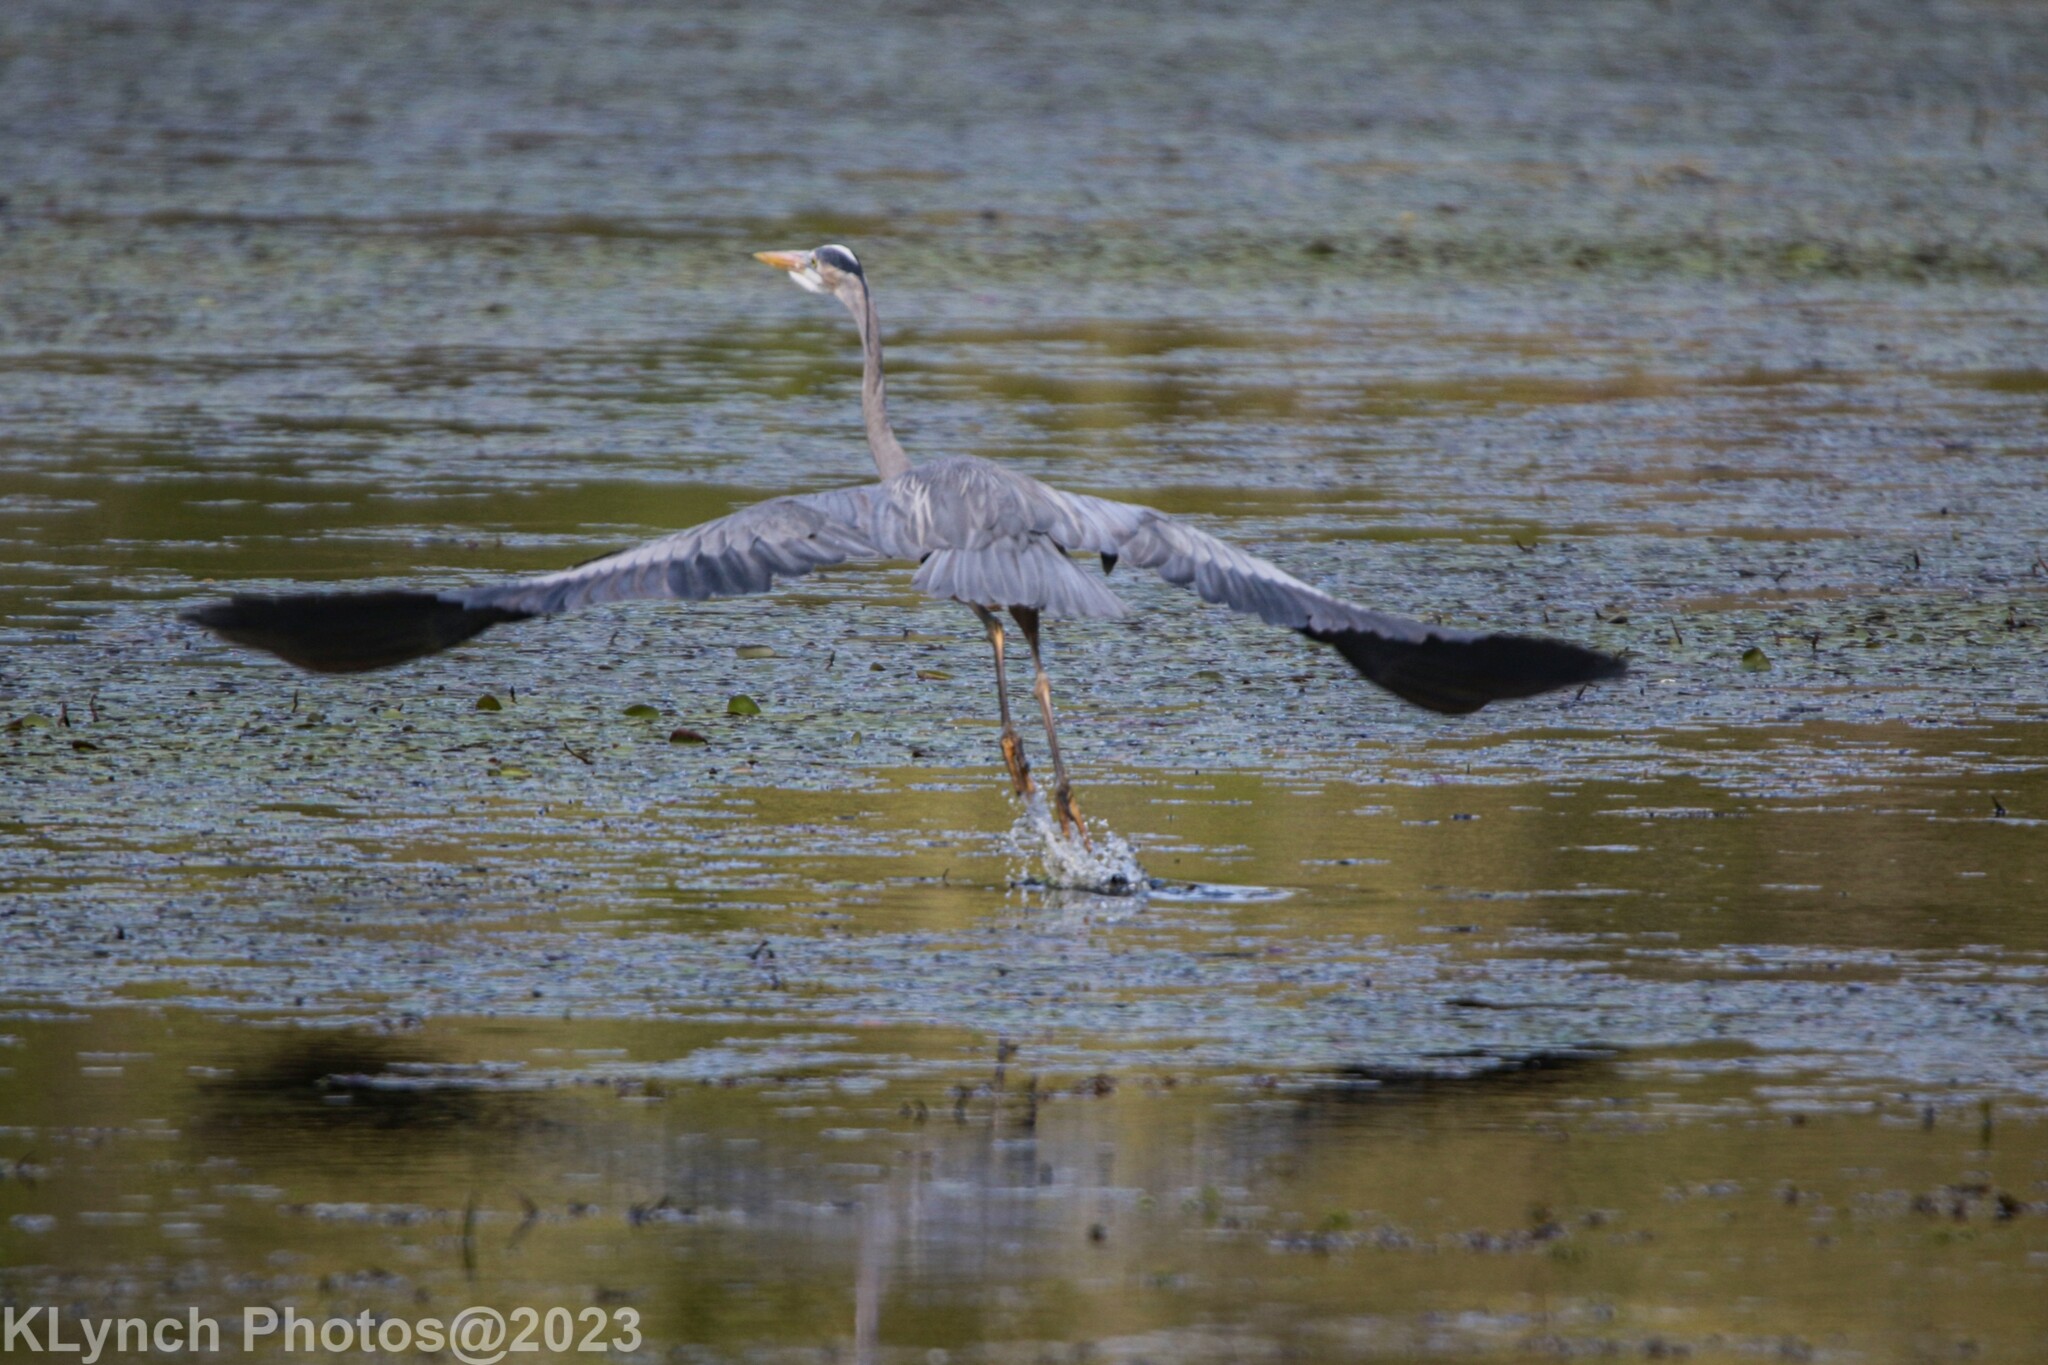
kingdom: Animalia
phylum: Chordata
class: Aves
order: Pelecaniformes
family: Ardeidae
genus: Ardea
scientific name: Ardea herodias
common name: Great blue heron
